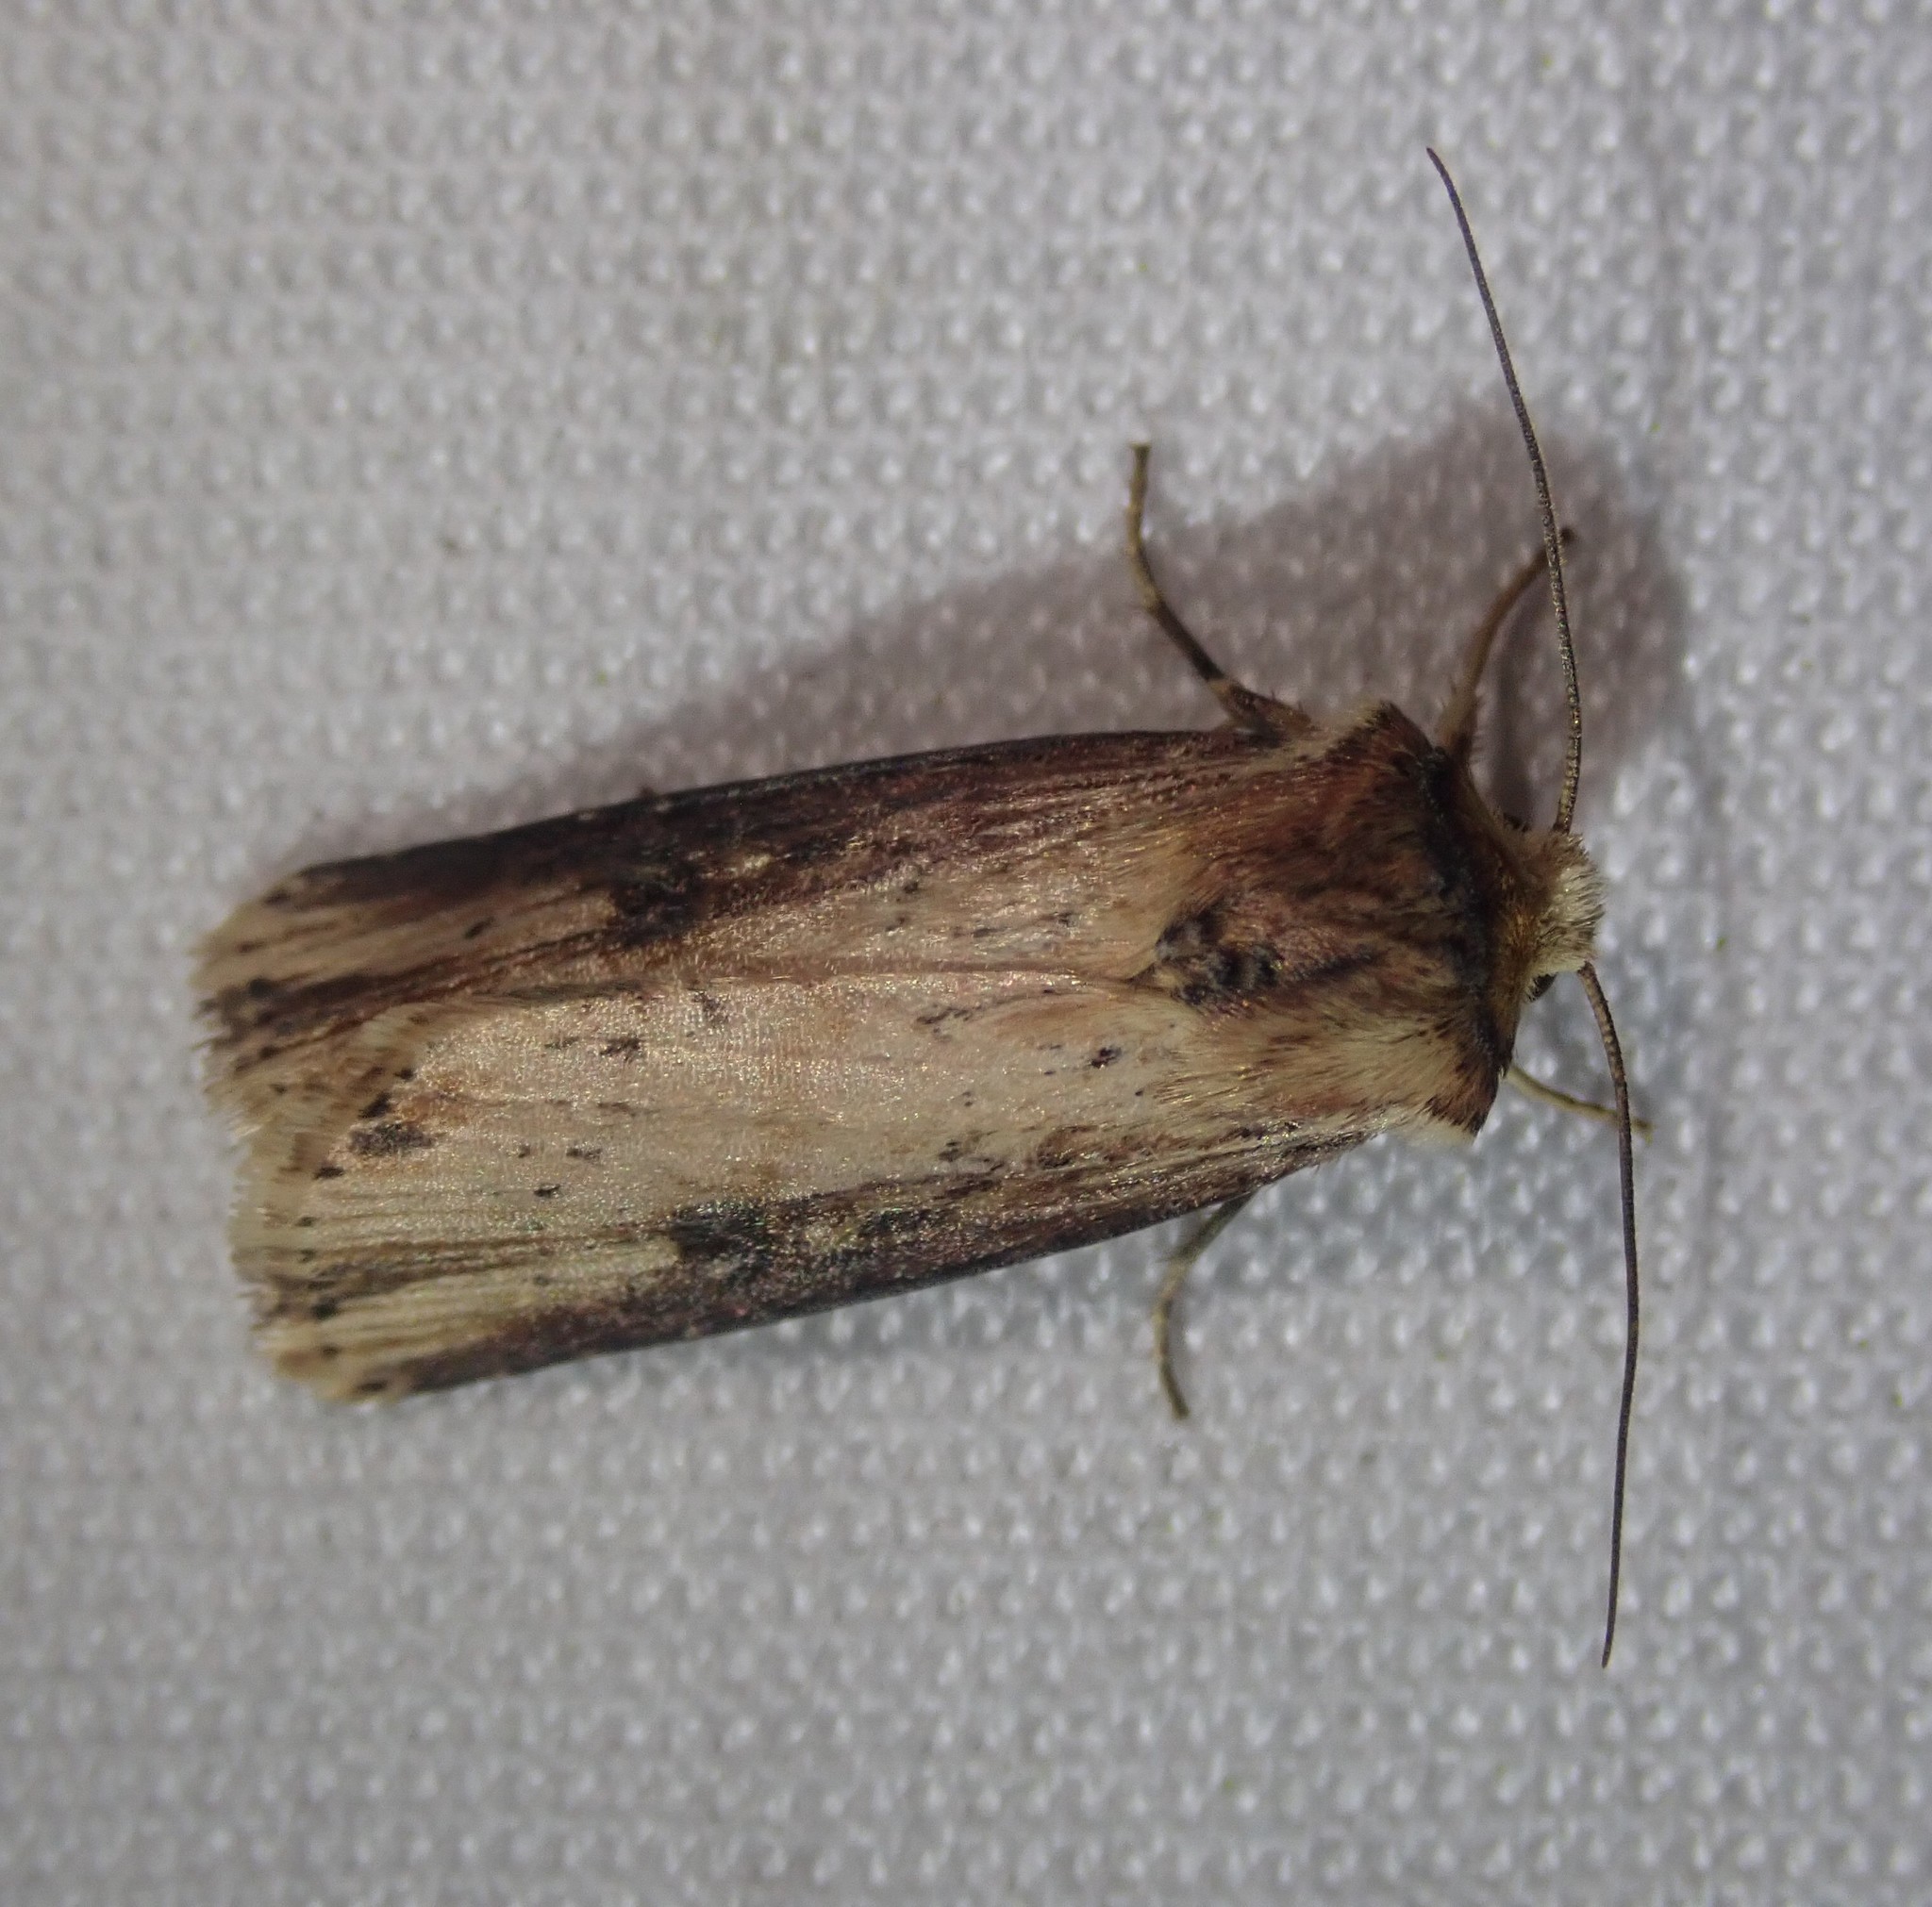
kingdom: Animalia
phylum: Arthropoda
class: Insecta
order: Lepidoptera
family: Noctuidae
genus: Axylia
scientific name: Axylia putris
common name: Flame
